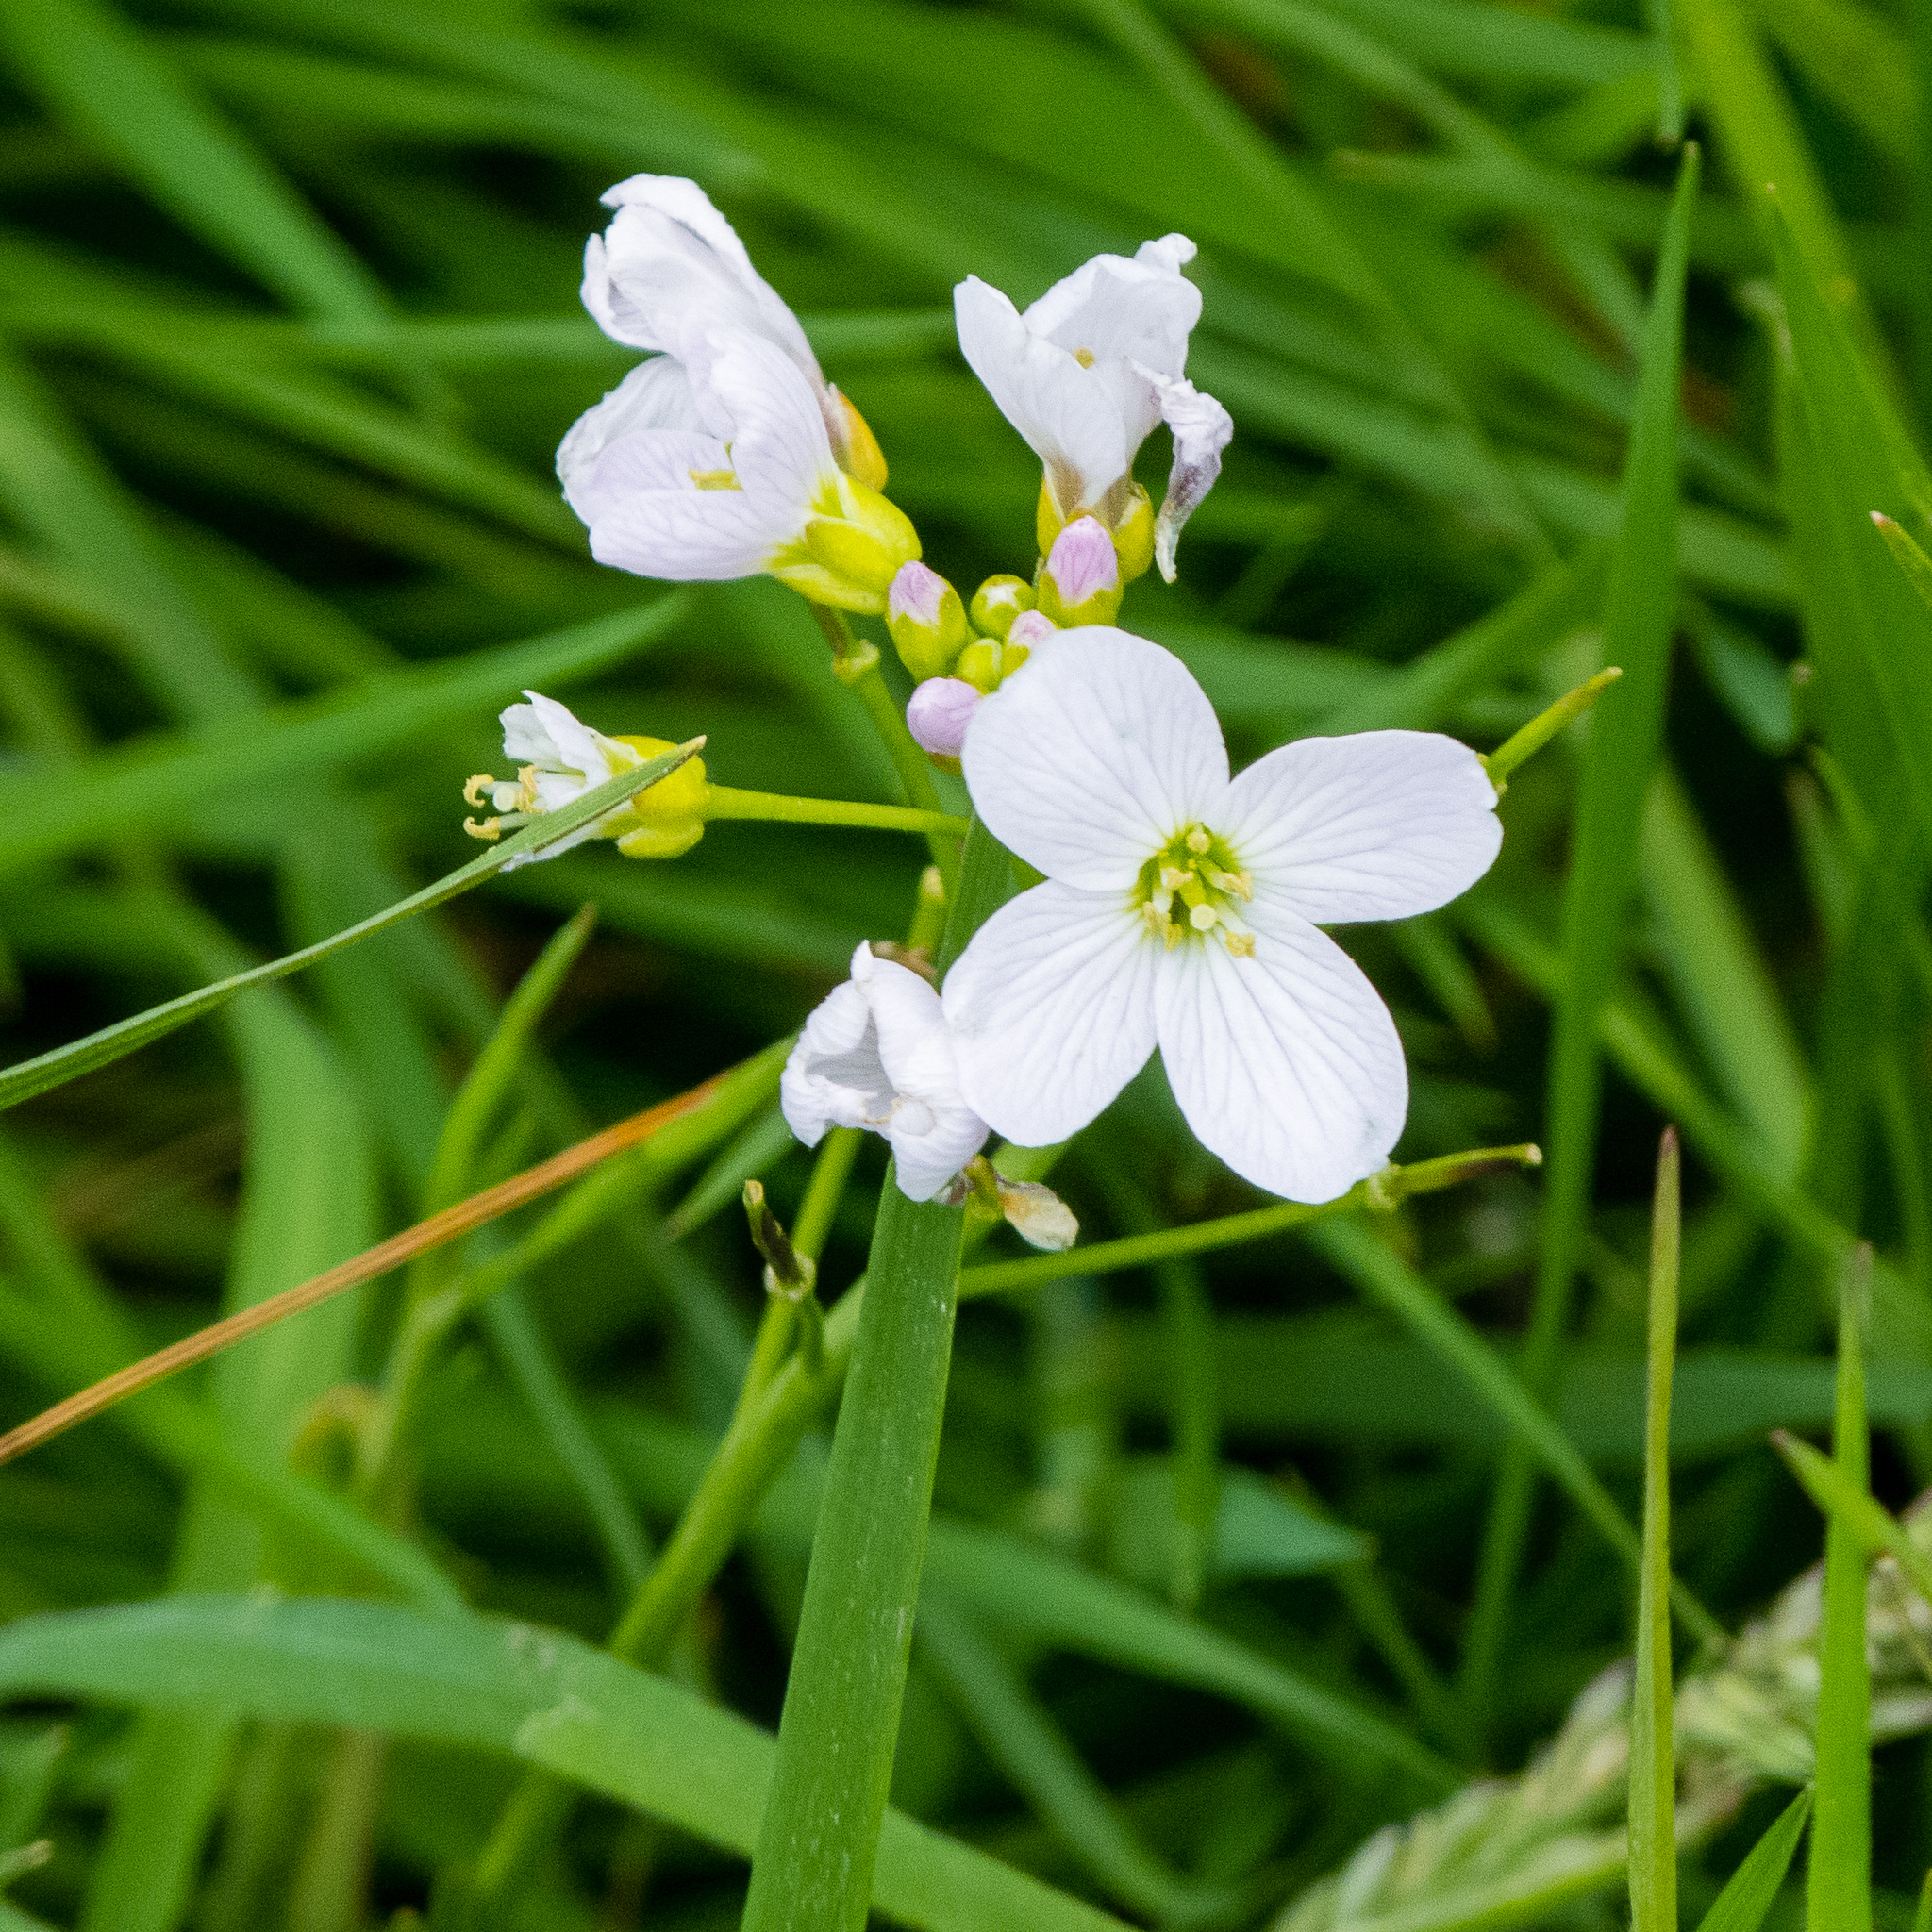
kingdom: Plantae
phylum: Tracheophyta
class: Magnoliopsida
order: Brassicales
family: Brassicaceae
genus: Cardamine
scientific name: Cardamine pratensis
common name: Cuckoo flower
